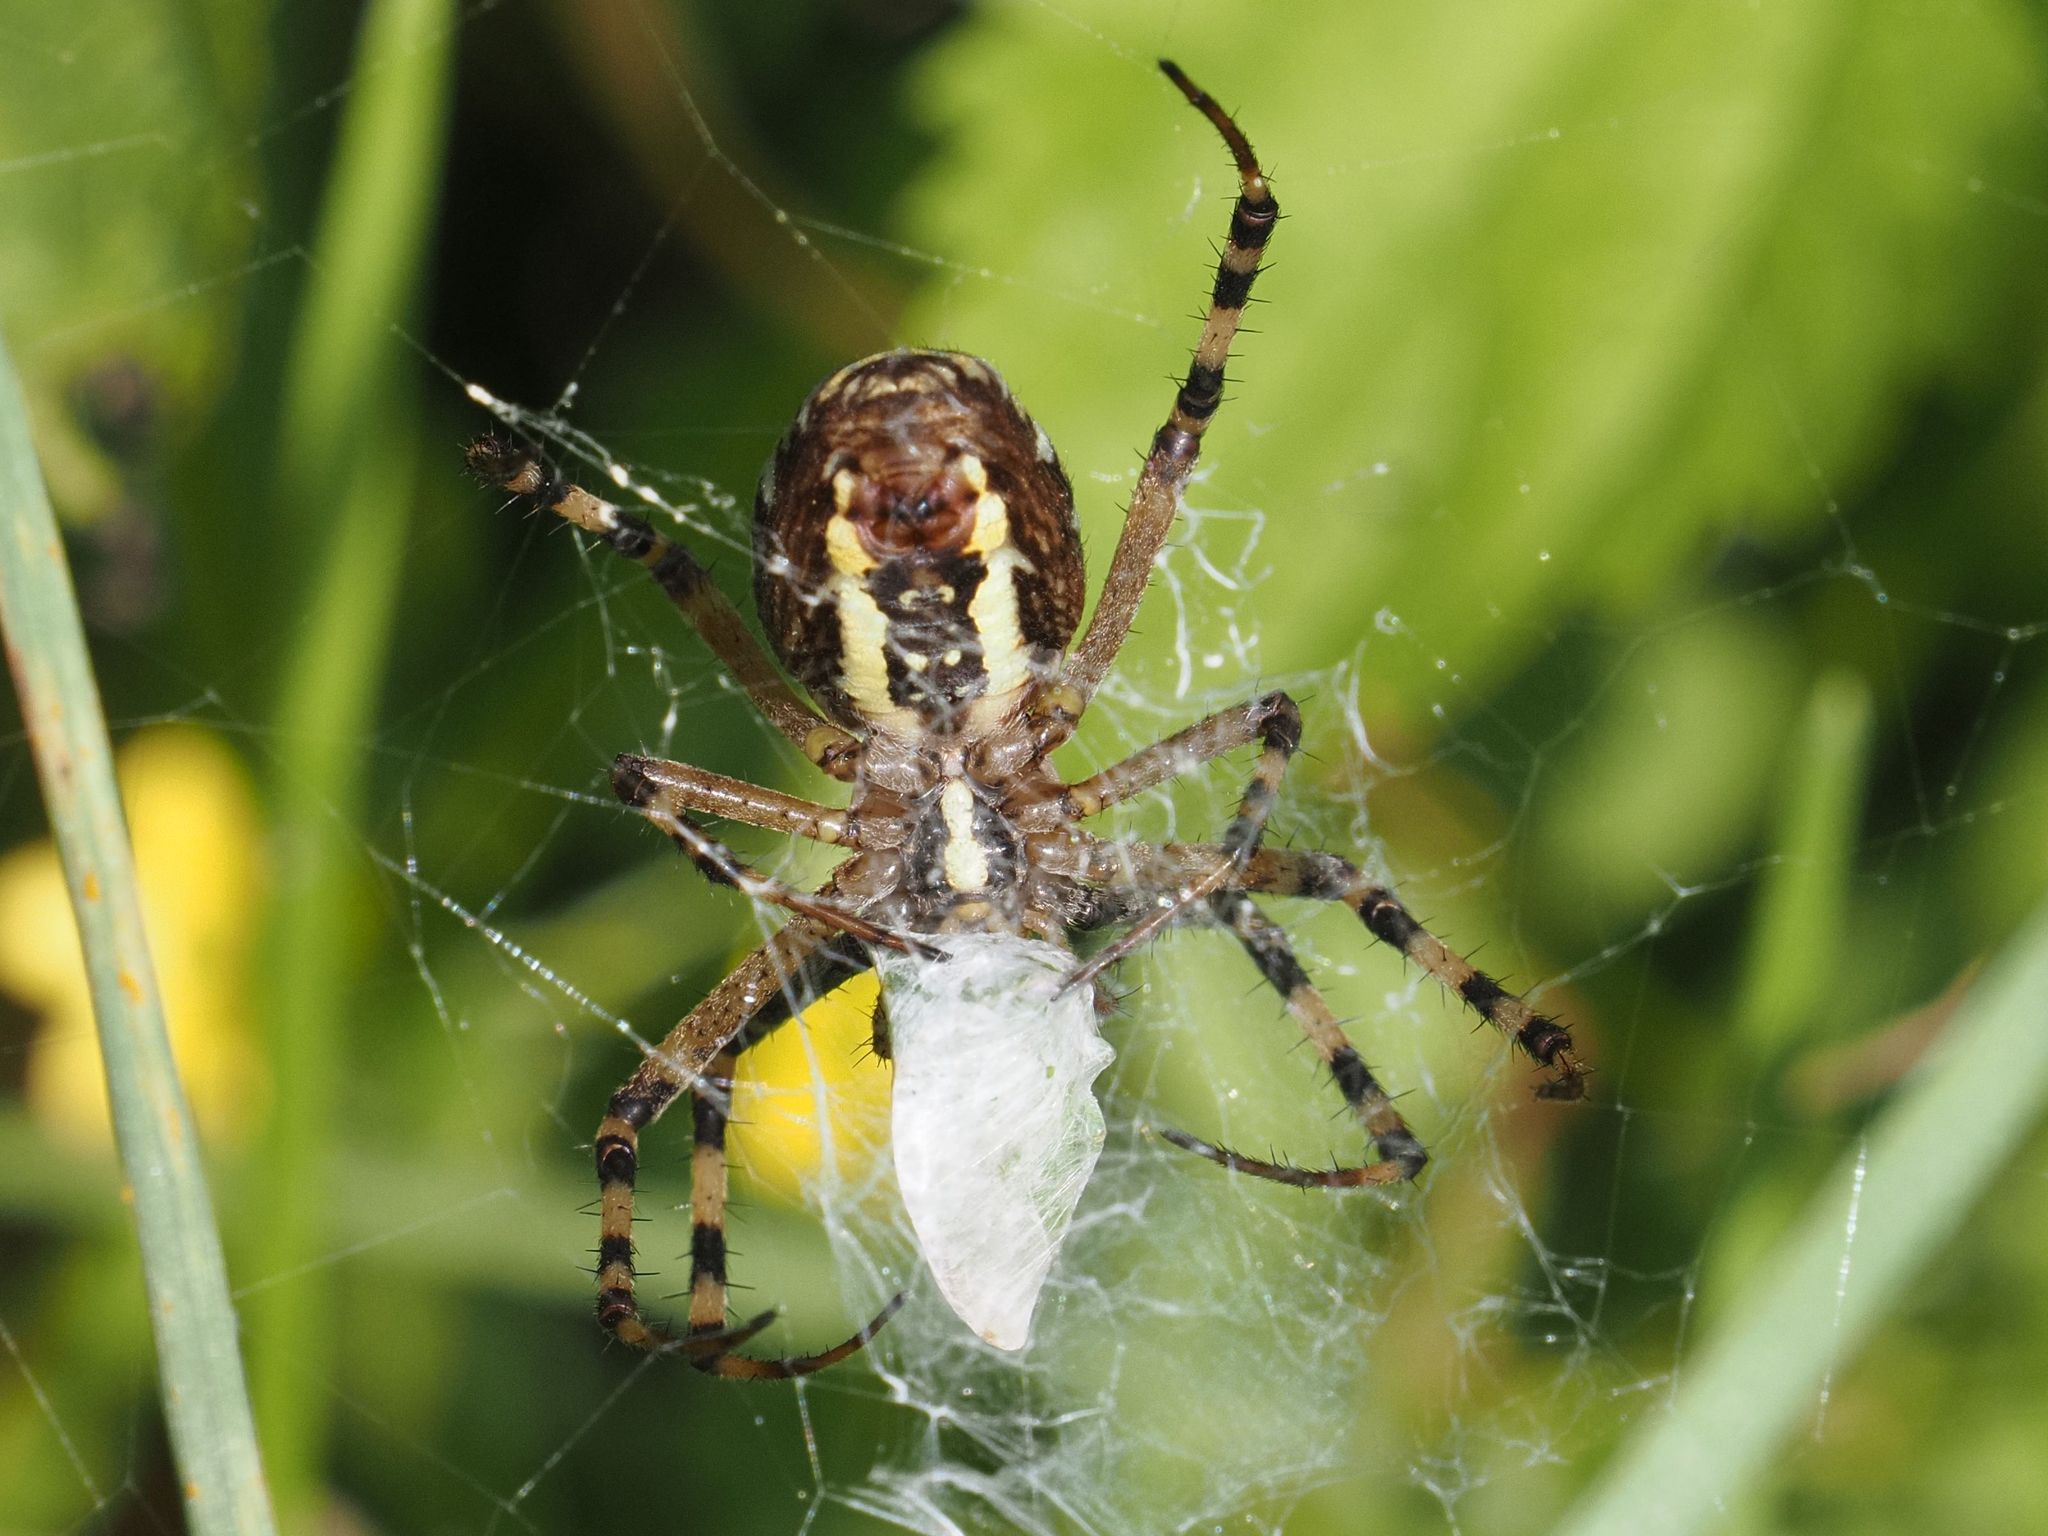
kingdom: Animalia
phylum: Arthropoda
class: Arachnida
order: Araneae
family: Araneidae
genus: Argiope
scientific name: Argiope bruennichi
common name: Wasp spider
